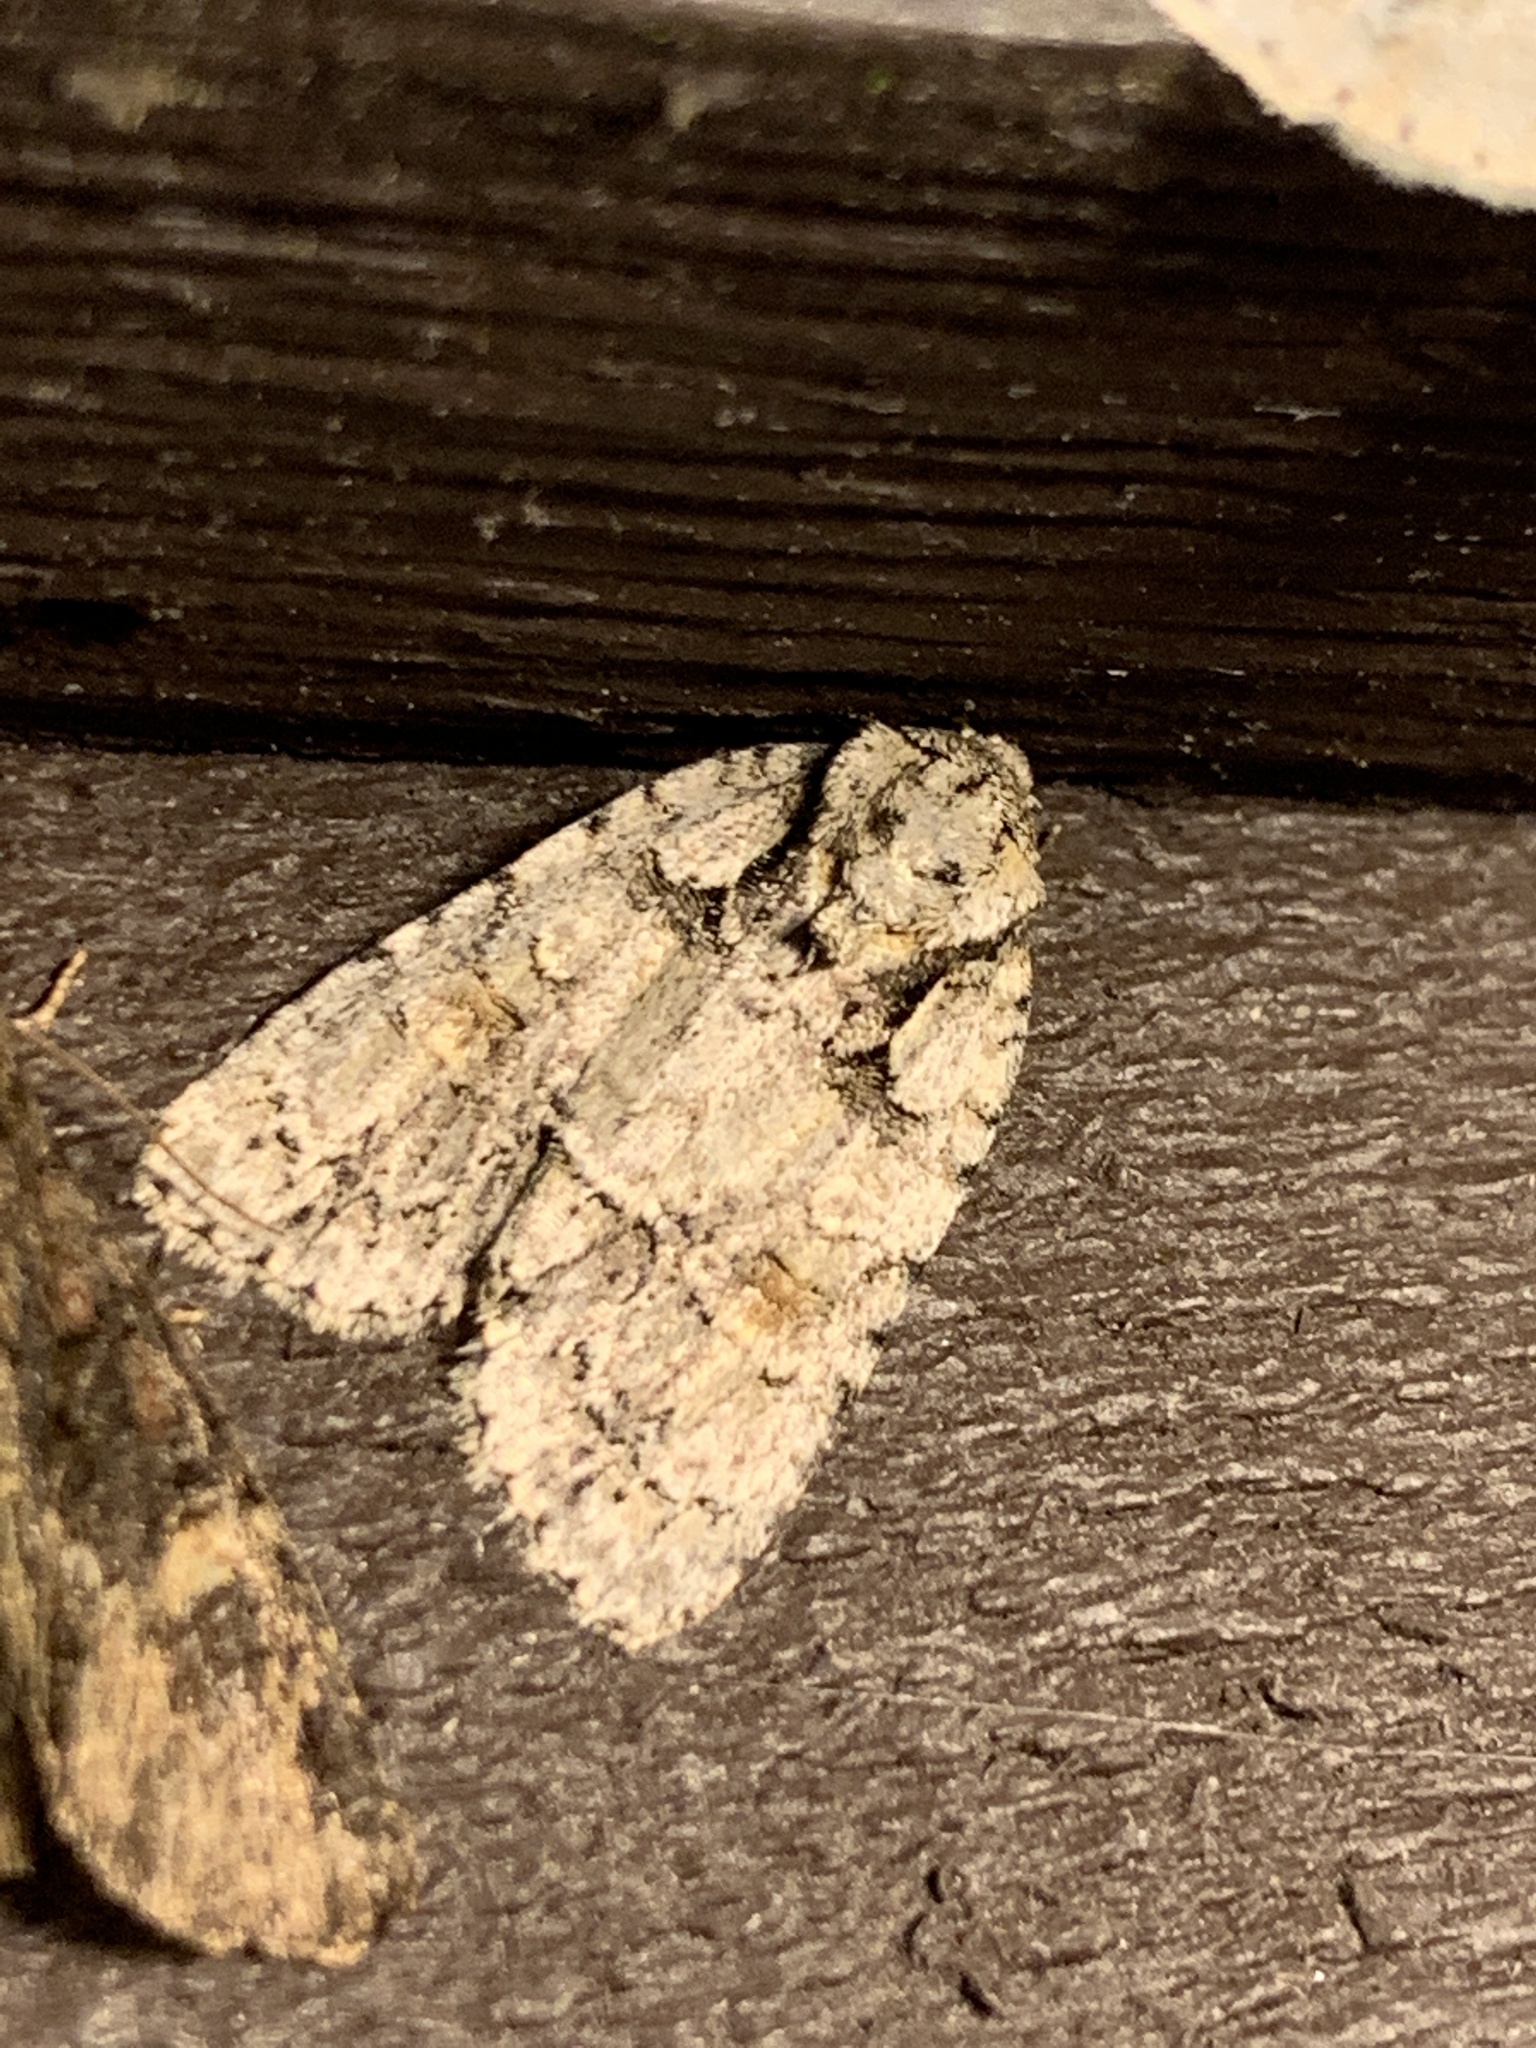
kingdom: Animalia
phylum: Arthropoda
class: Insecta
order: Lepidoptera
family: Noctuidae
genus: Acronicta
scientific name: Acronicta ovata
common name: Epauleted oak dagger
